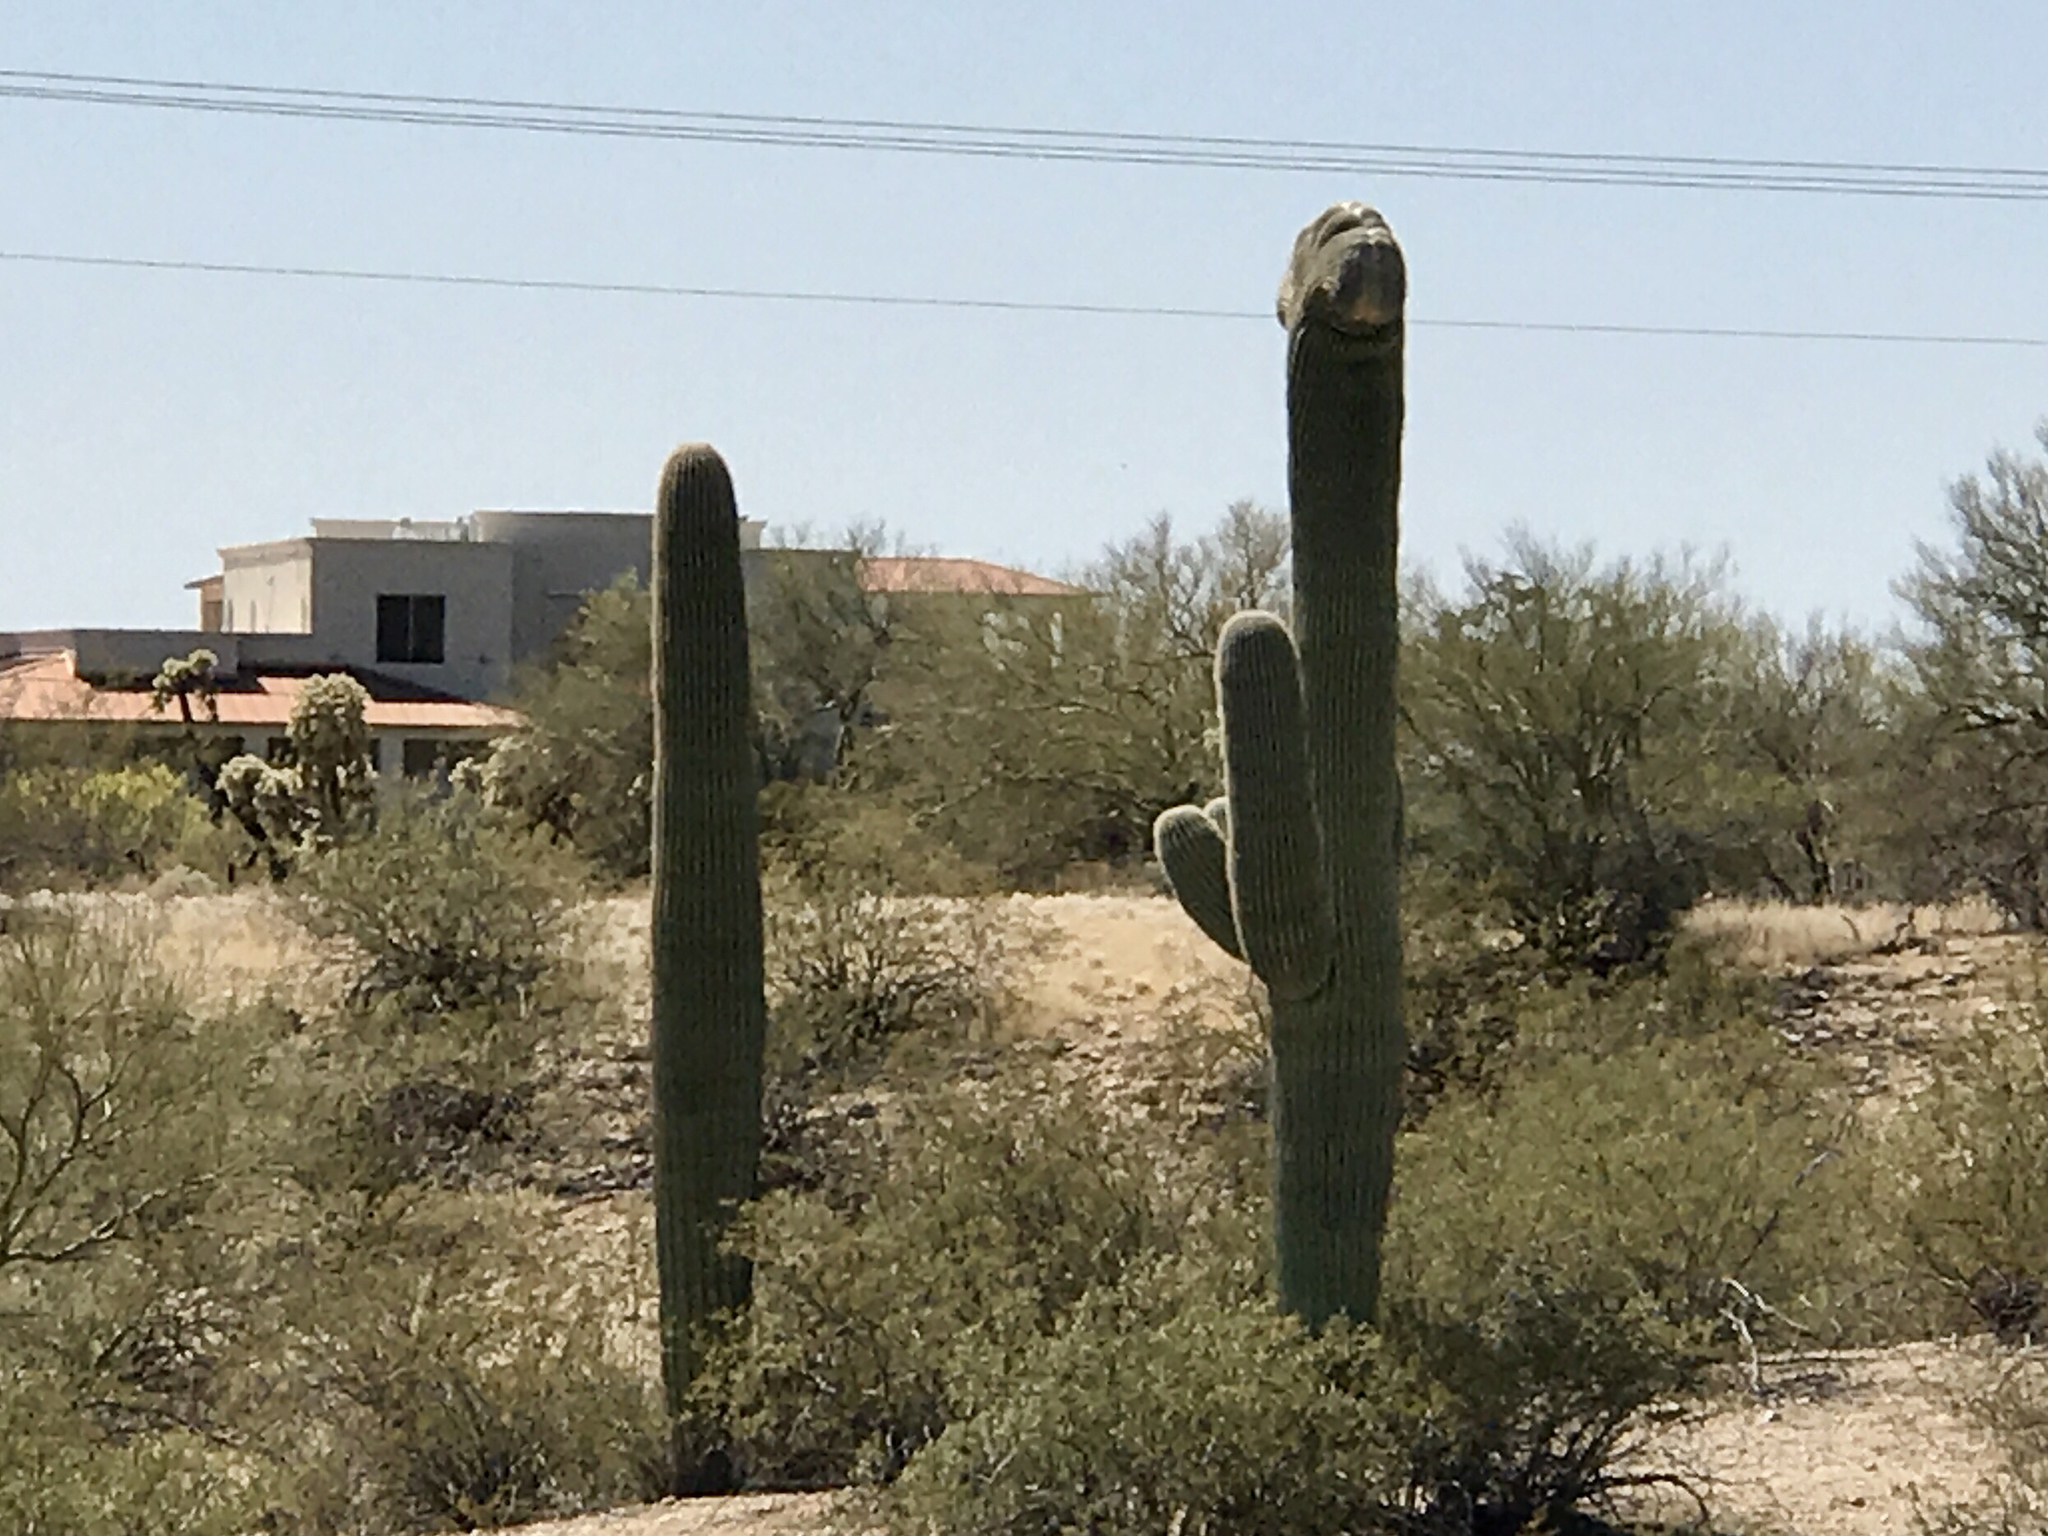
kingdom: Plantae
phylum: Tracheophyta
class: Magnoliopsida
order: Caryophyllales
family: Cactaceae
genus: Carnegiea
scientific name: Carnegiea gigantea
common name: Saguaro
